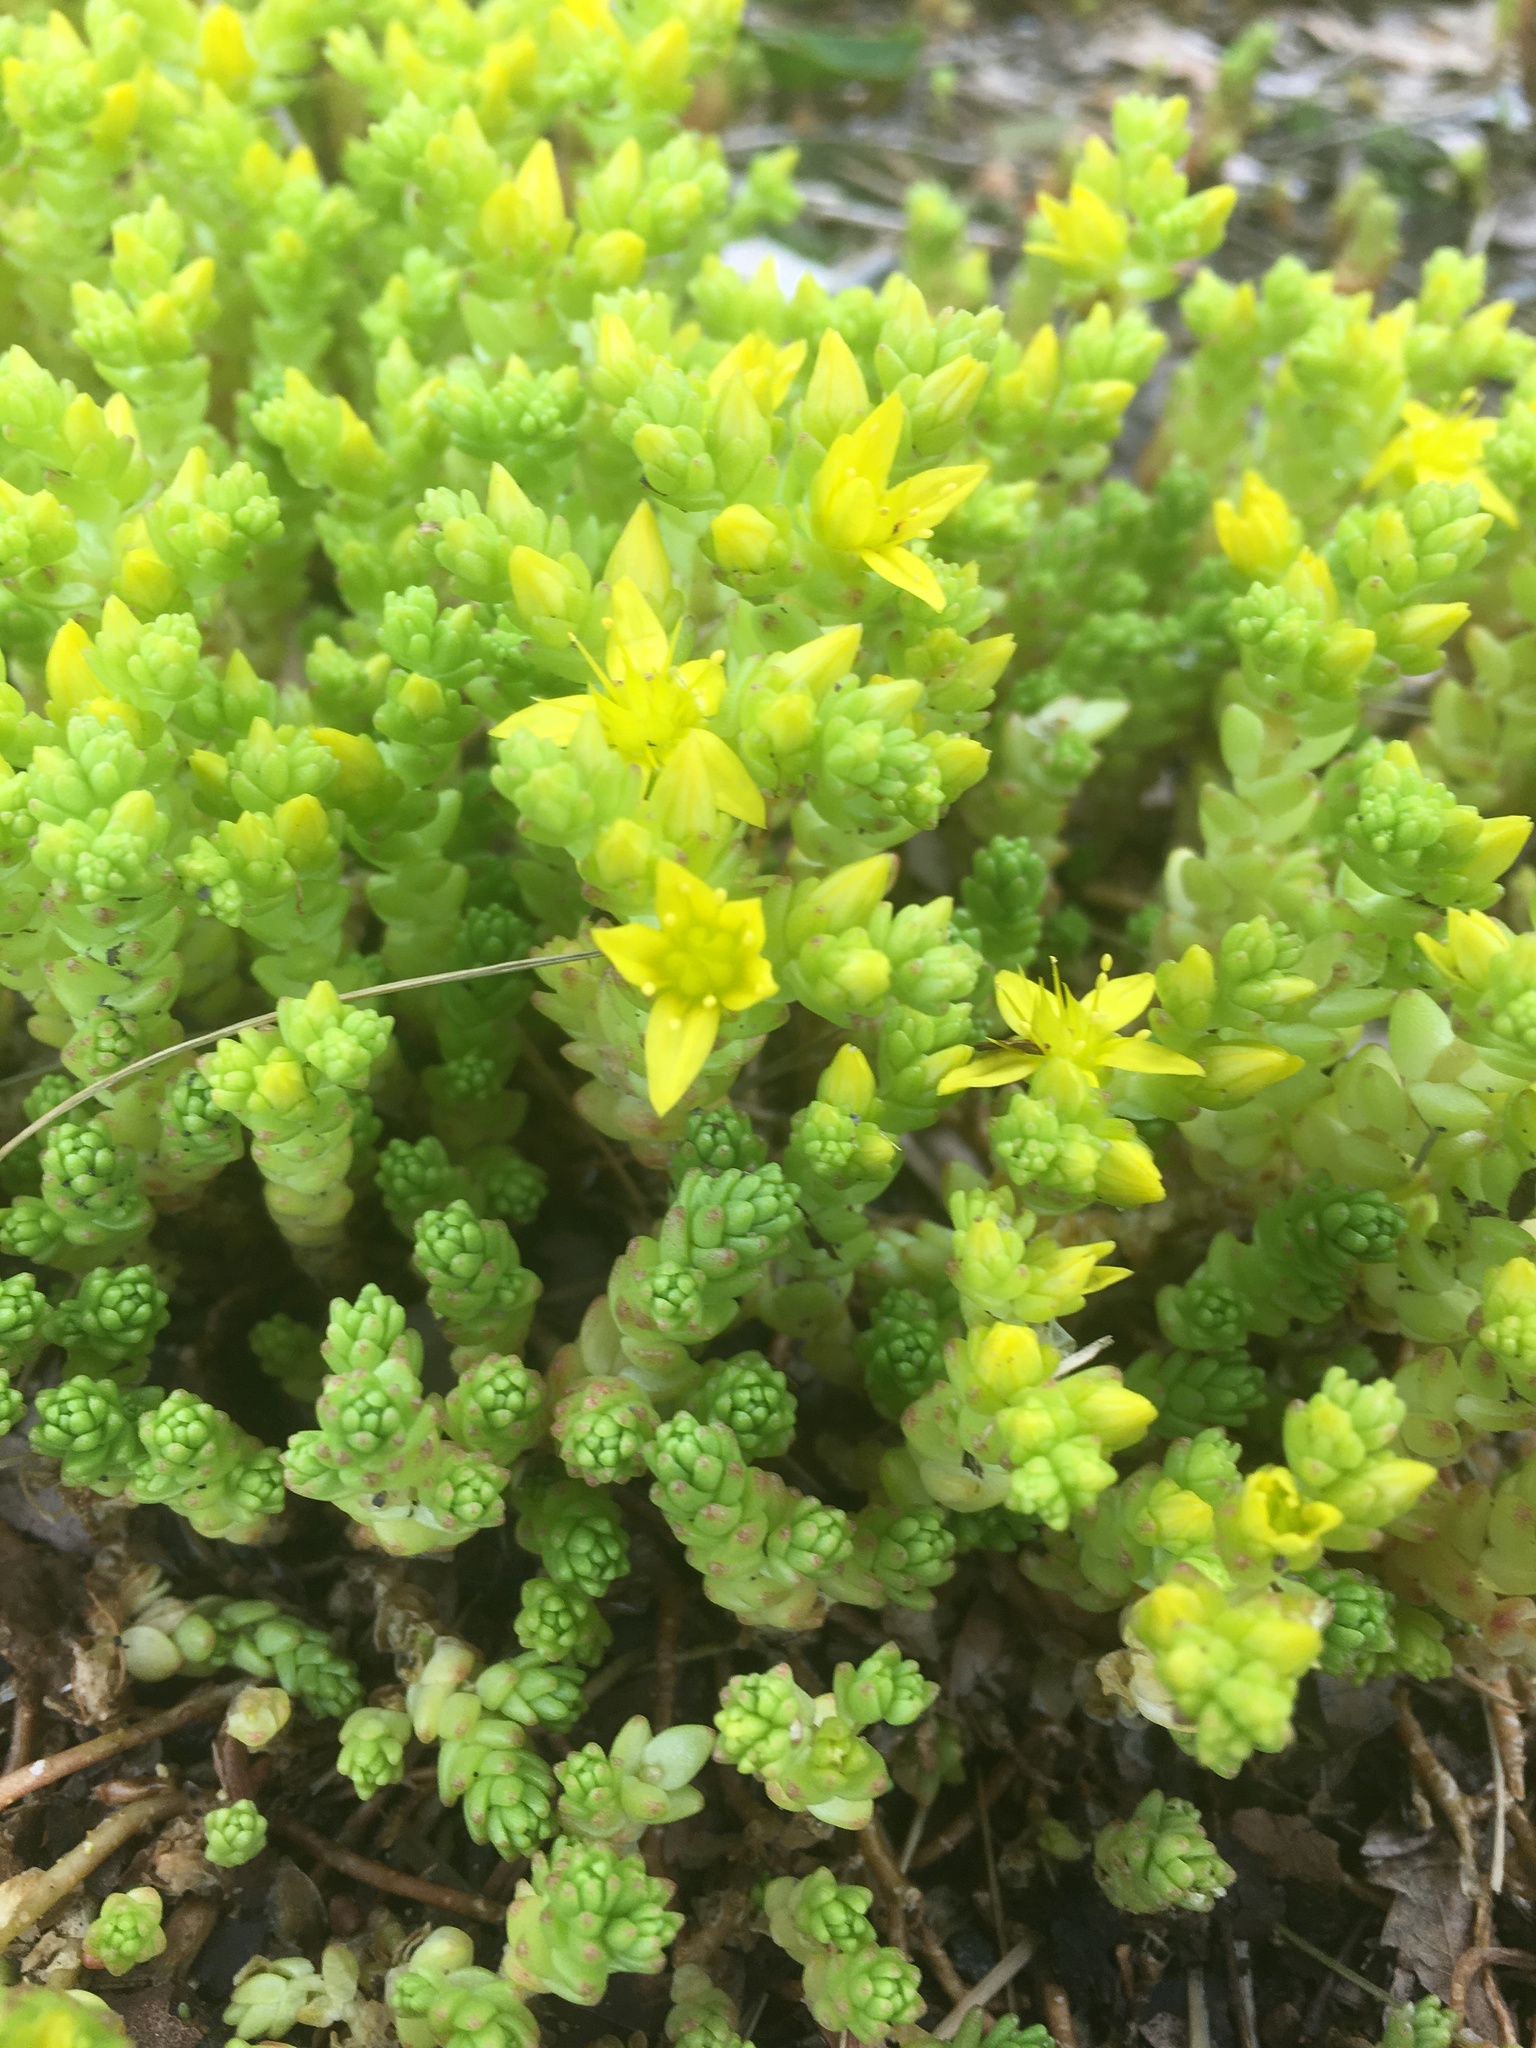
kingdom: Plantae
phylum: Tracheophyta
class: Magnoliopsida
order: Saxifragales
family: Crassulaceae
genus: Sedum
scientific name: Sedum acre
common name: Biting stonecrop
